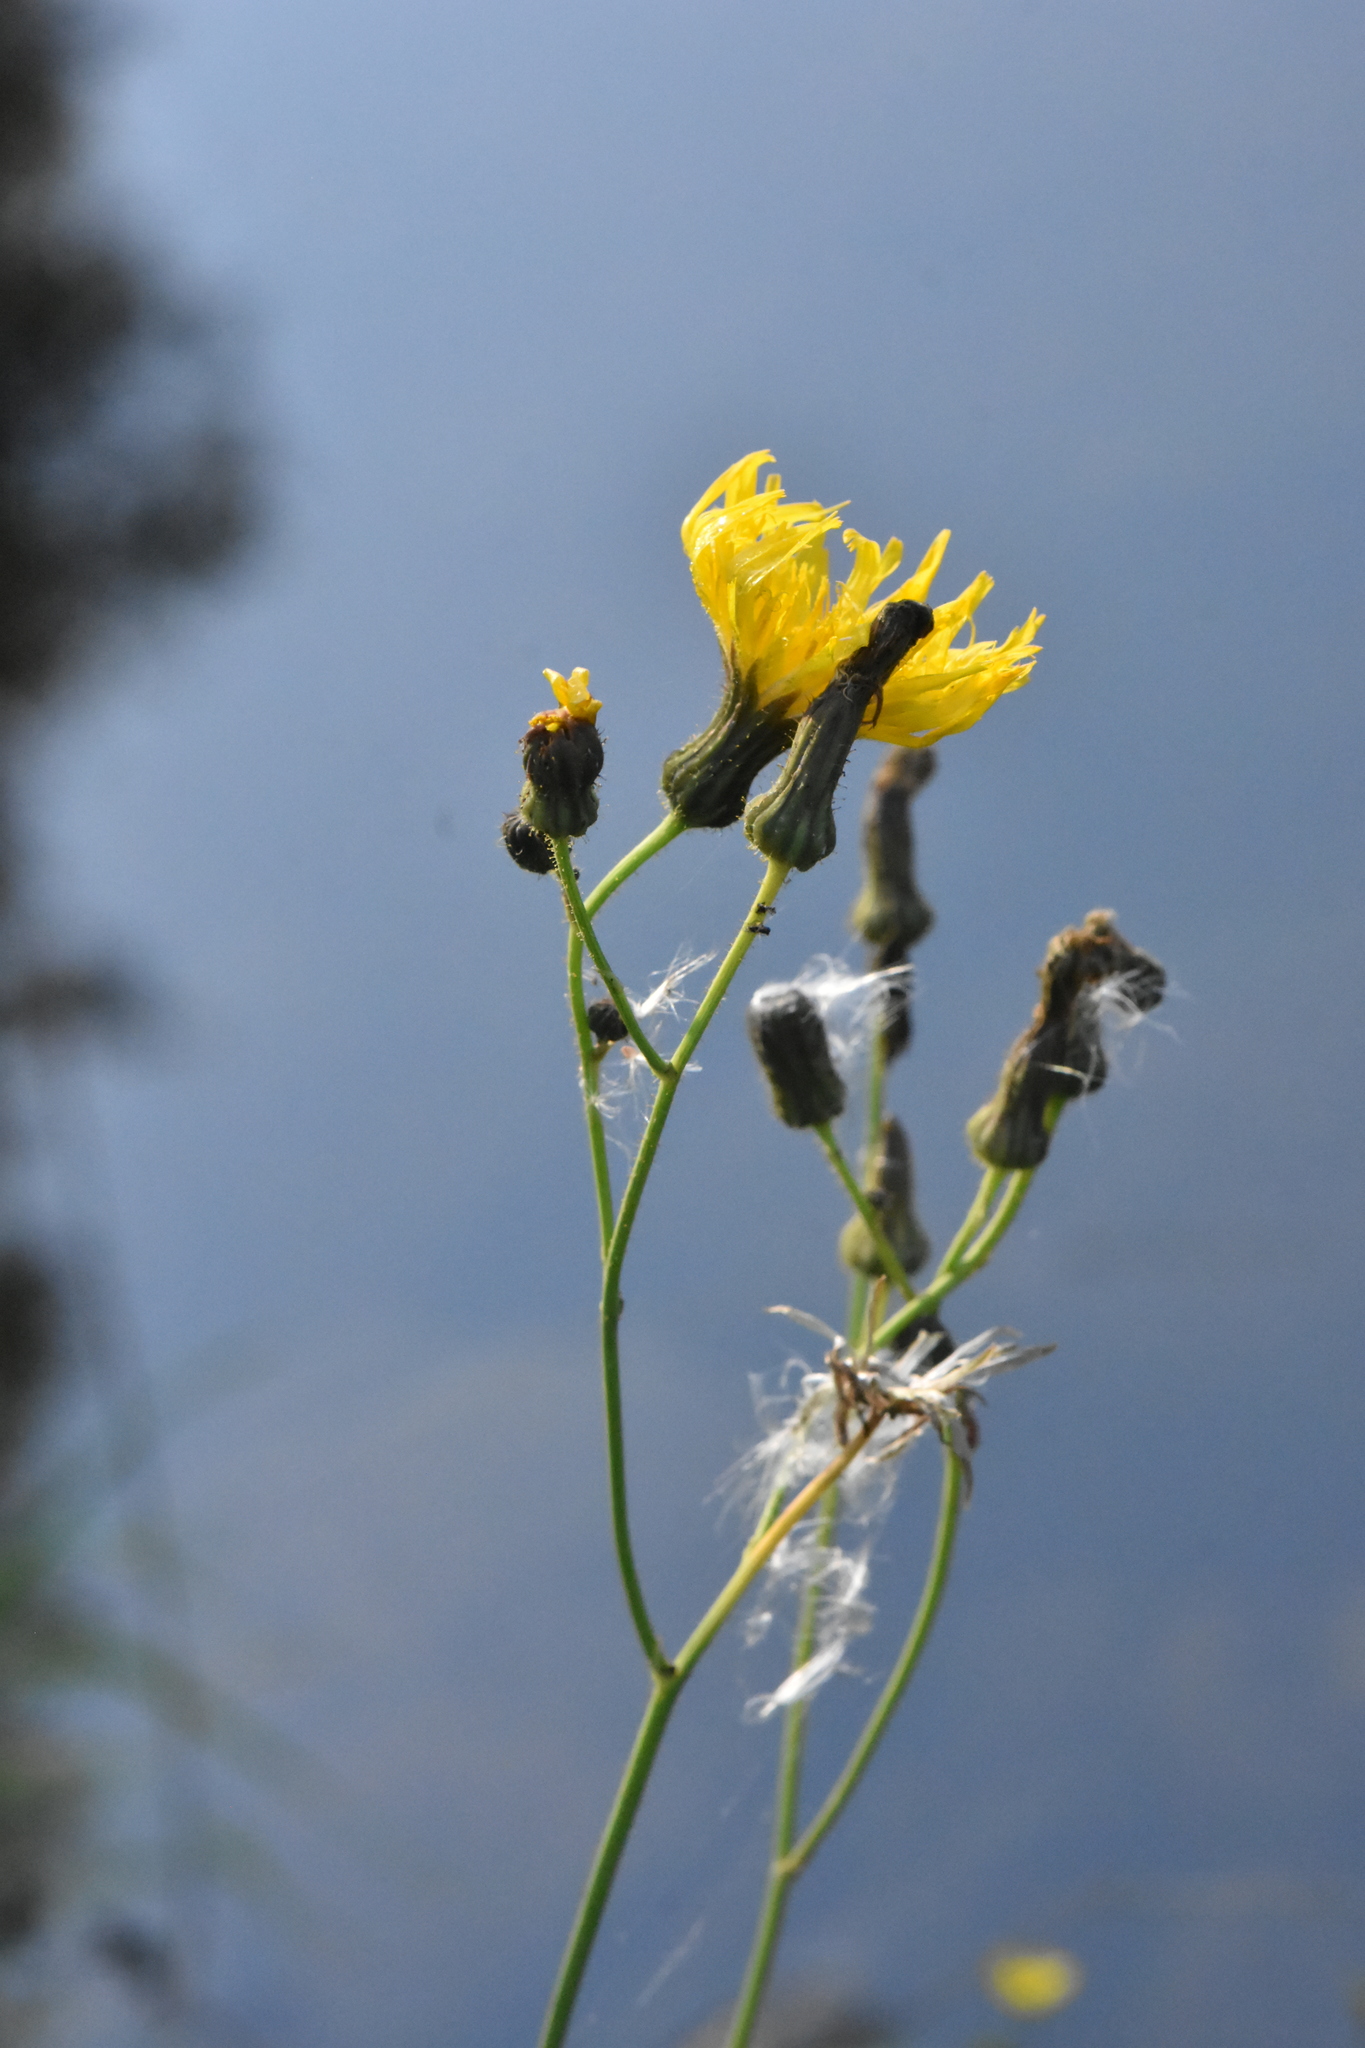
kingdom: Plantae
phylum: Tracheophyta
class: Magnoliopsida
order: Asterales
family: Asteraceae
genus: Sonchus
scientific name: Sonchus arvensis
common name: Perennial sow-thistle
